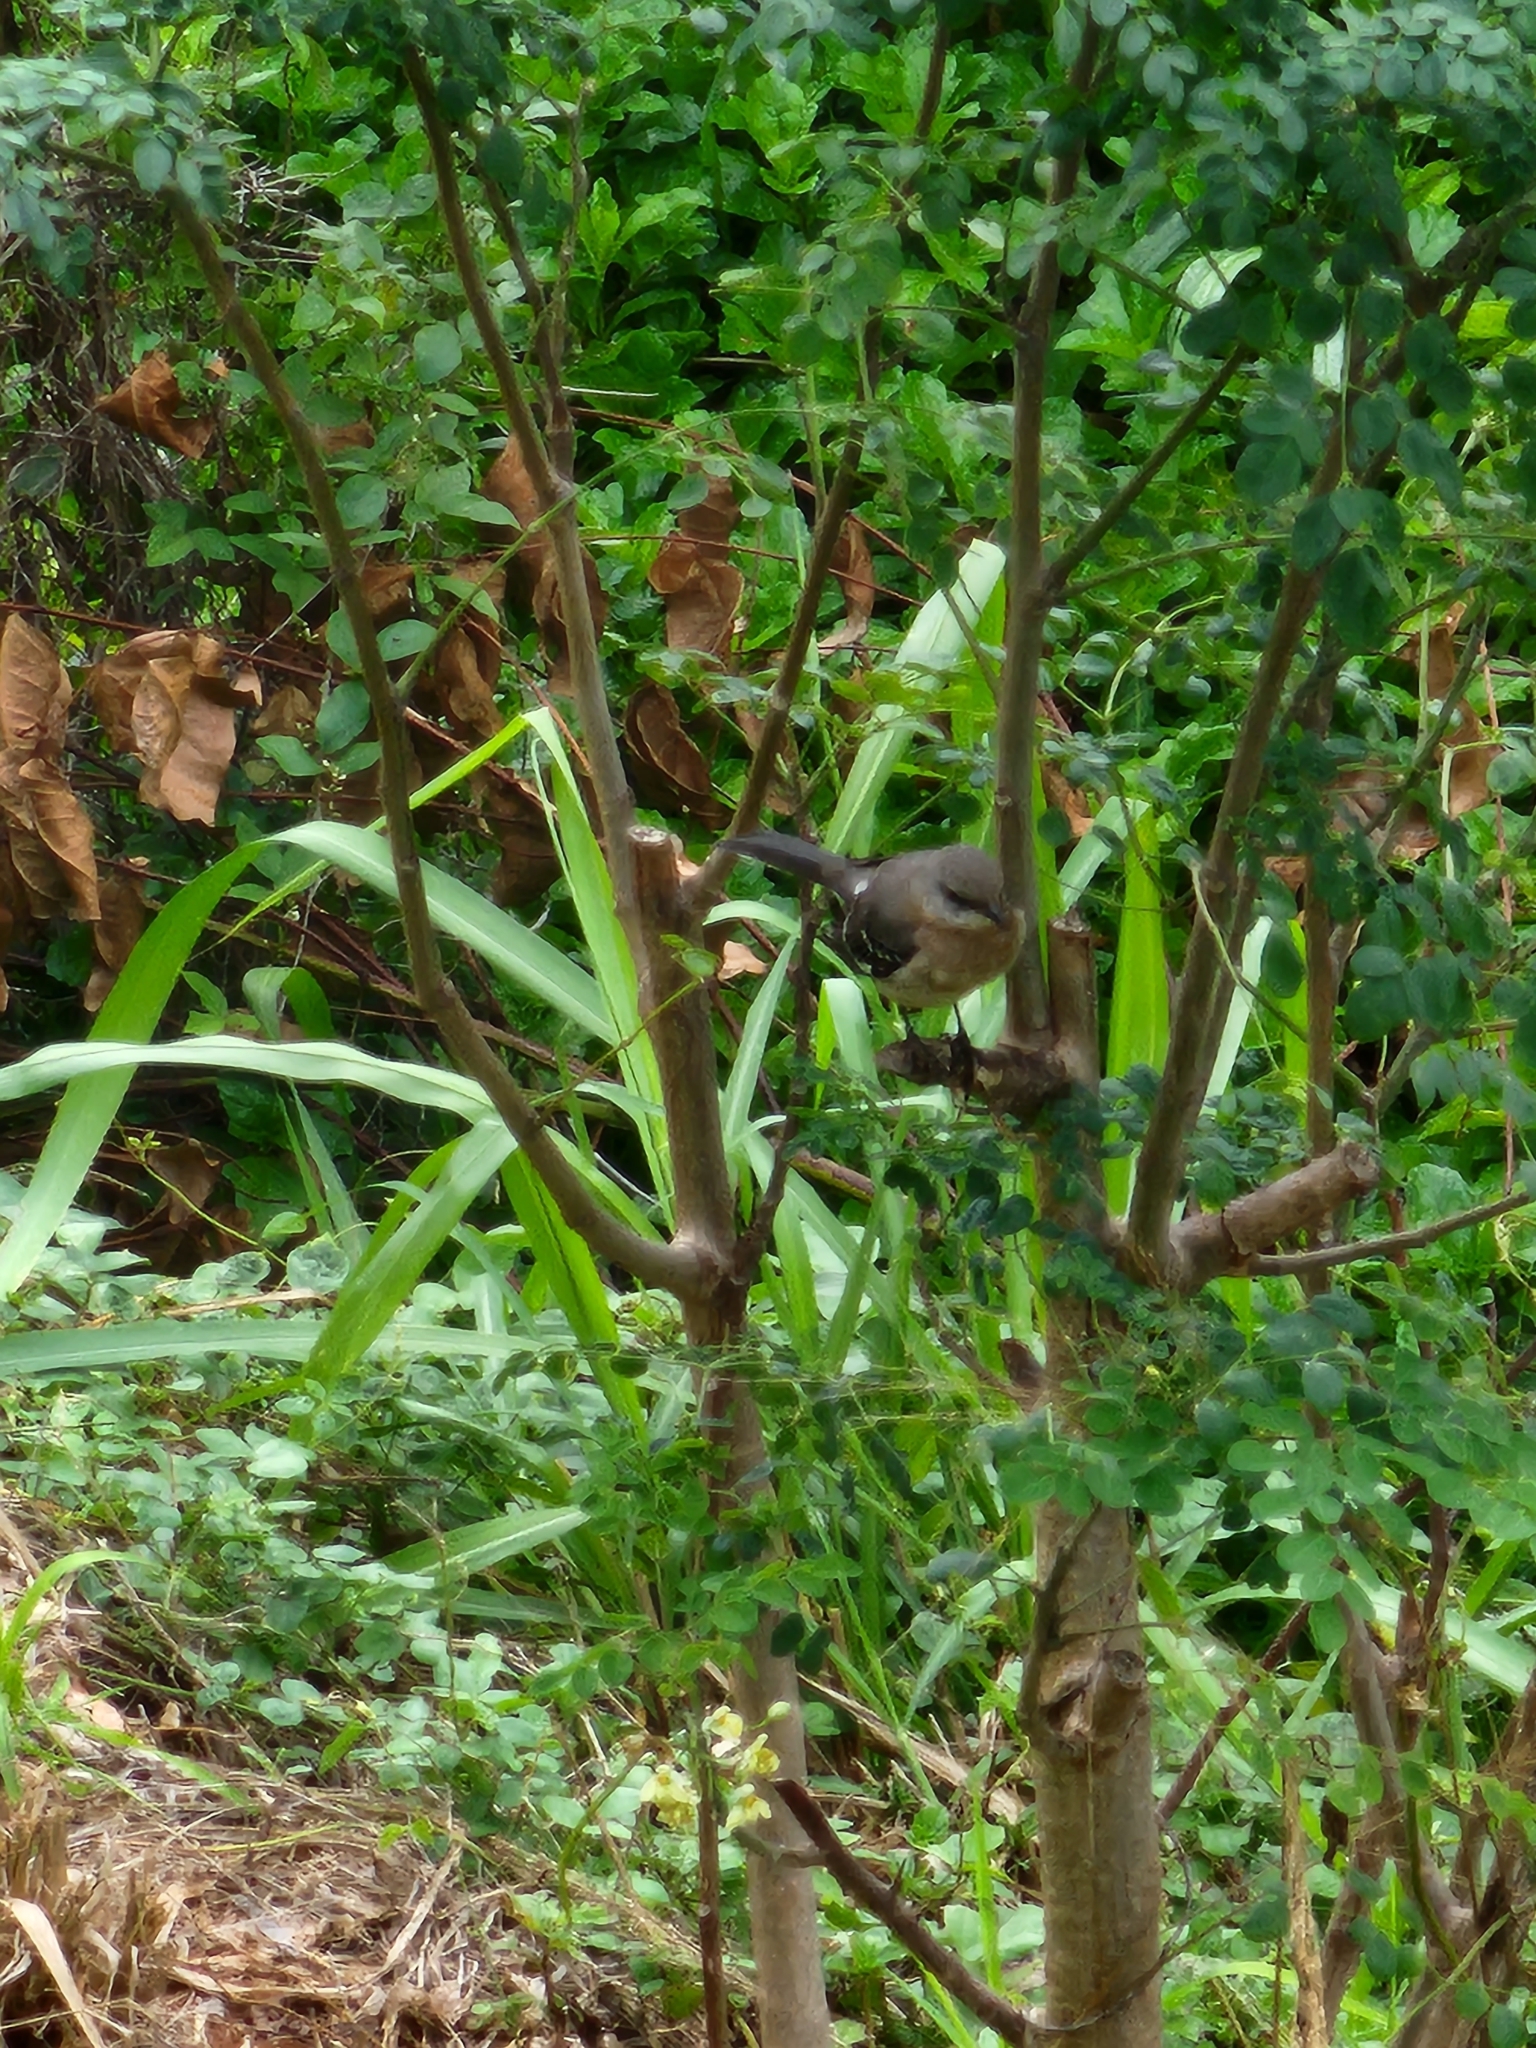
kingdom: Animalia
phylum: Chordata
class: Aves
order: Passeriformes
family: Mimidae
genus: Mimus
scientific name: Mimus polyglottos
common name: Northern mockingbird
